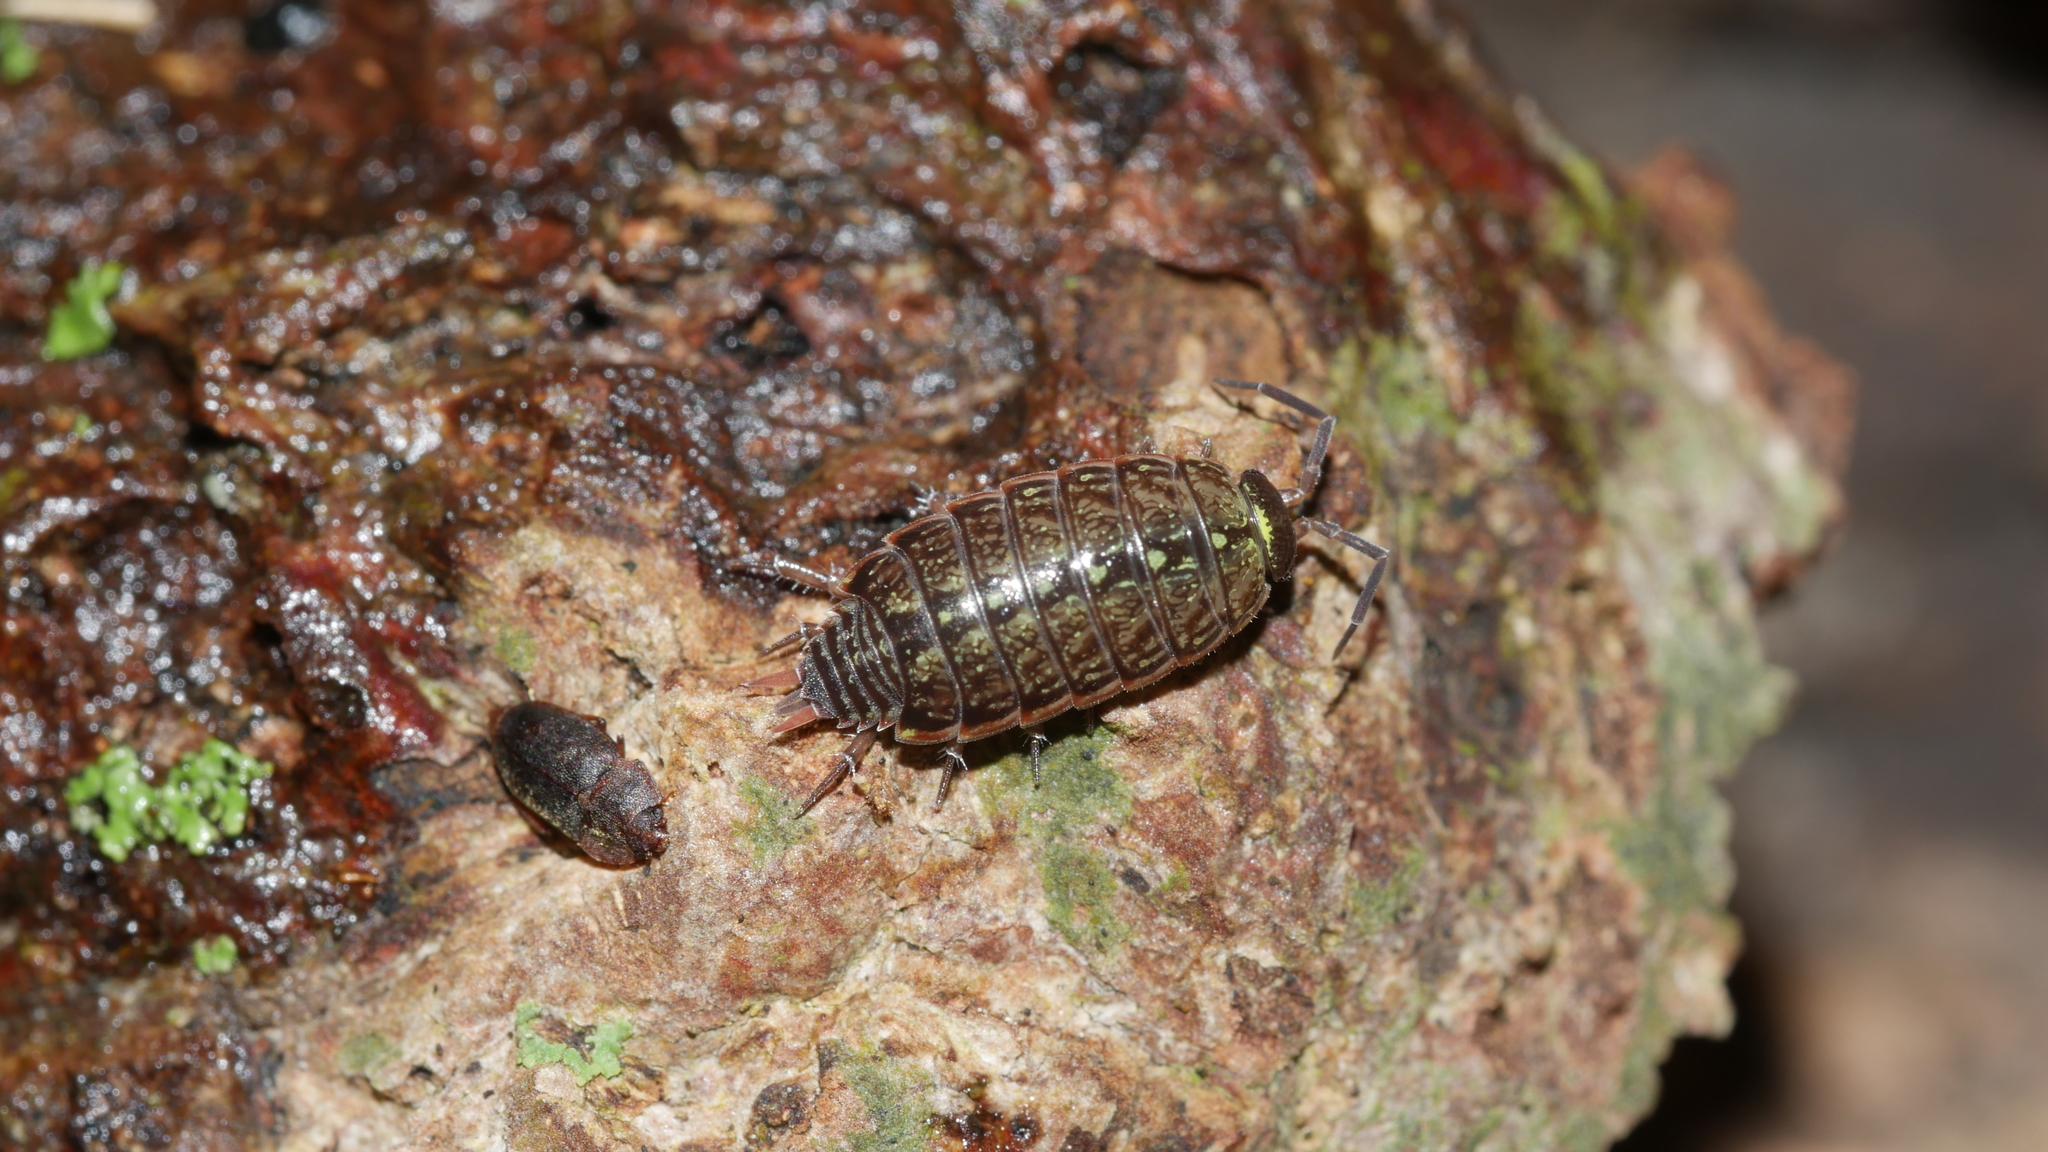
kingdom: Animalia
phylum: Arthropoda
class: Malacostraca
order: Isopoda
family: Philosciidae
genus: Philoscia
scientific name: Philoscia muscorum
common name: Common striped woodlouse
